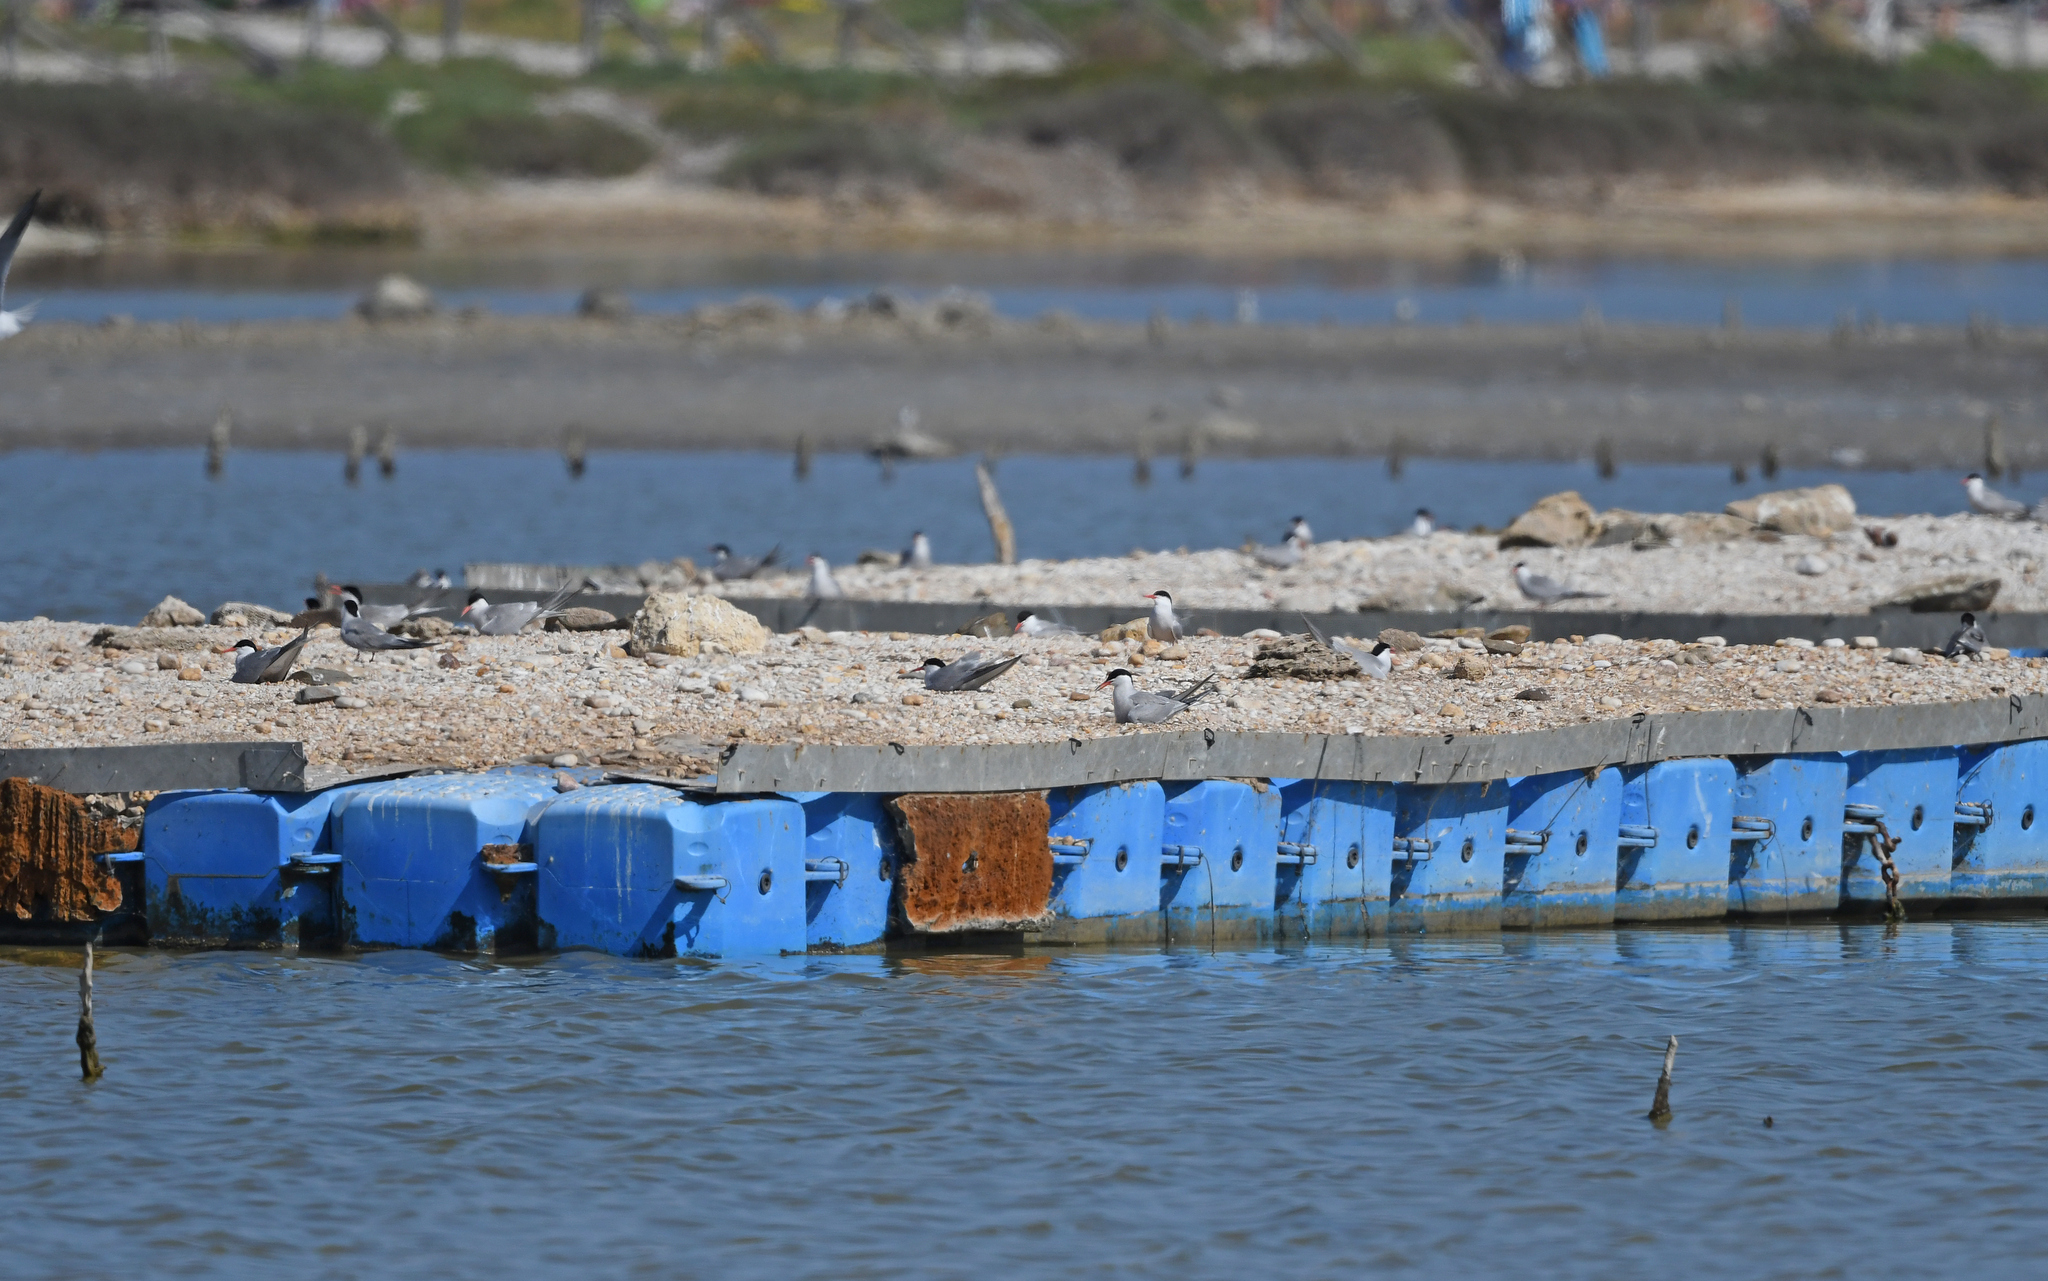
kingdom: Animalia
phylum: Chordata
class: Aves
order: Charadriiformes
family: Laridae
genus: Sterna
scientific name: Sterna hirundo
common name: Common tern
